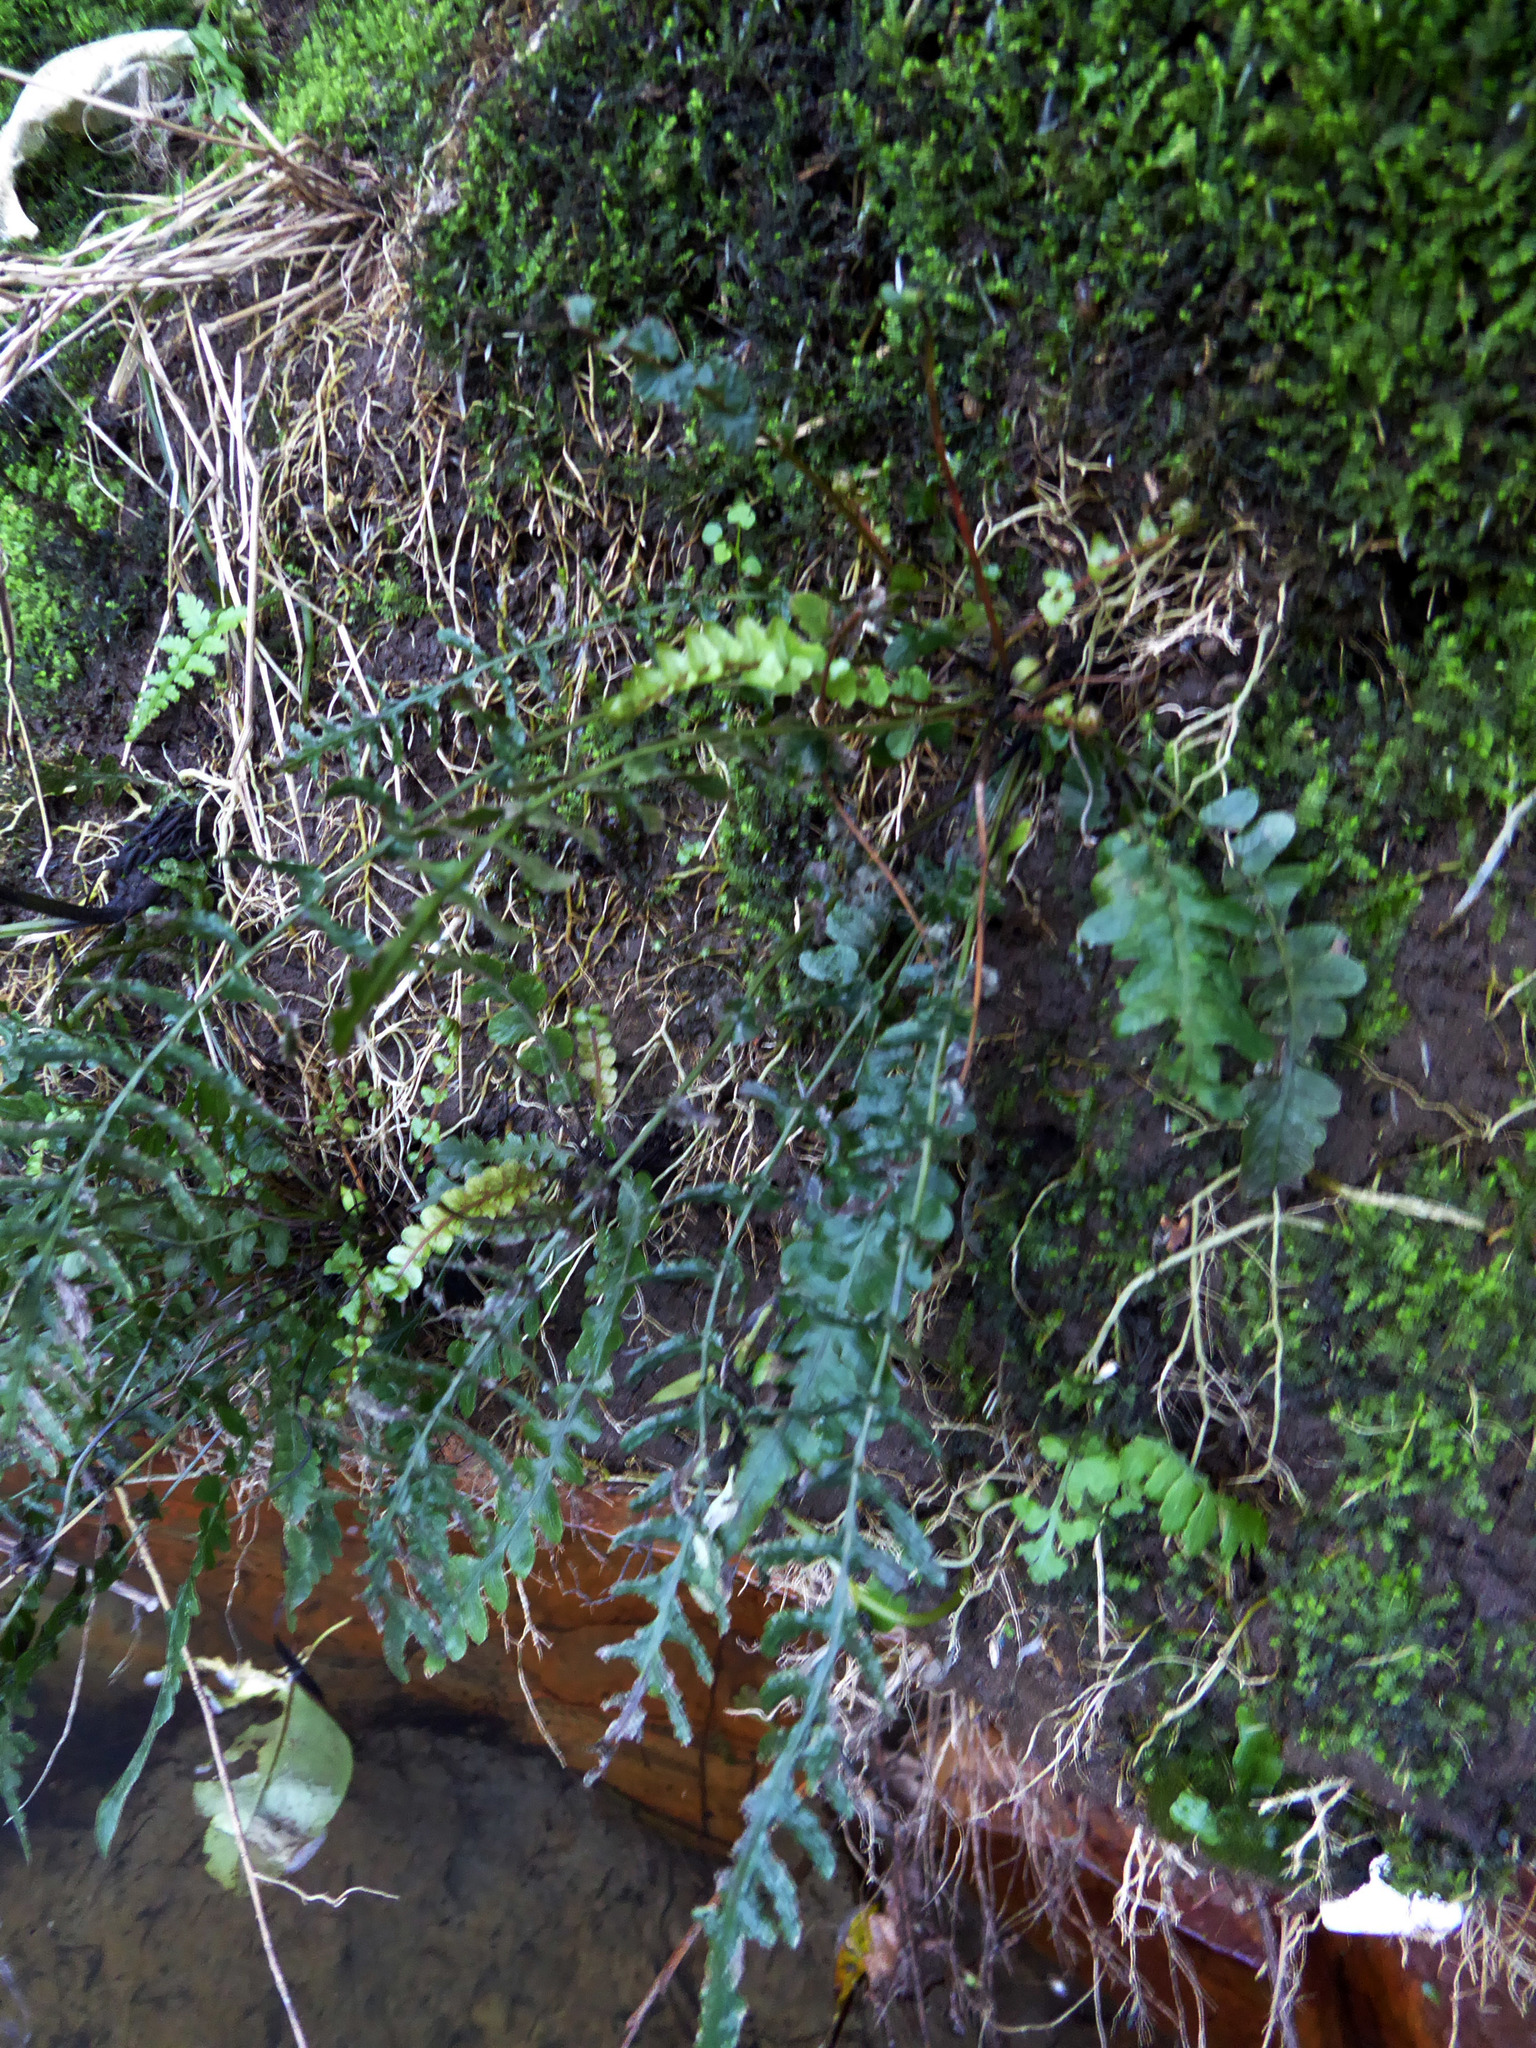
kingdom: Plantae
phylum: Tracheophyta
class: Polypodiopsida
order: Polypodiales
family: Blechnaceae
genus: Doodia
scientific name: Doodia squarrosa
